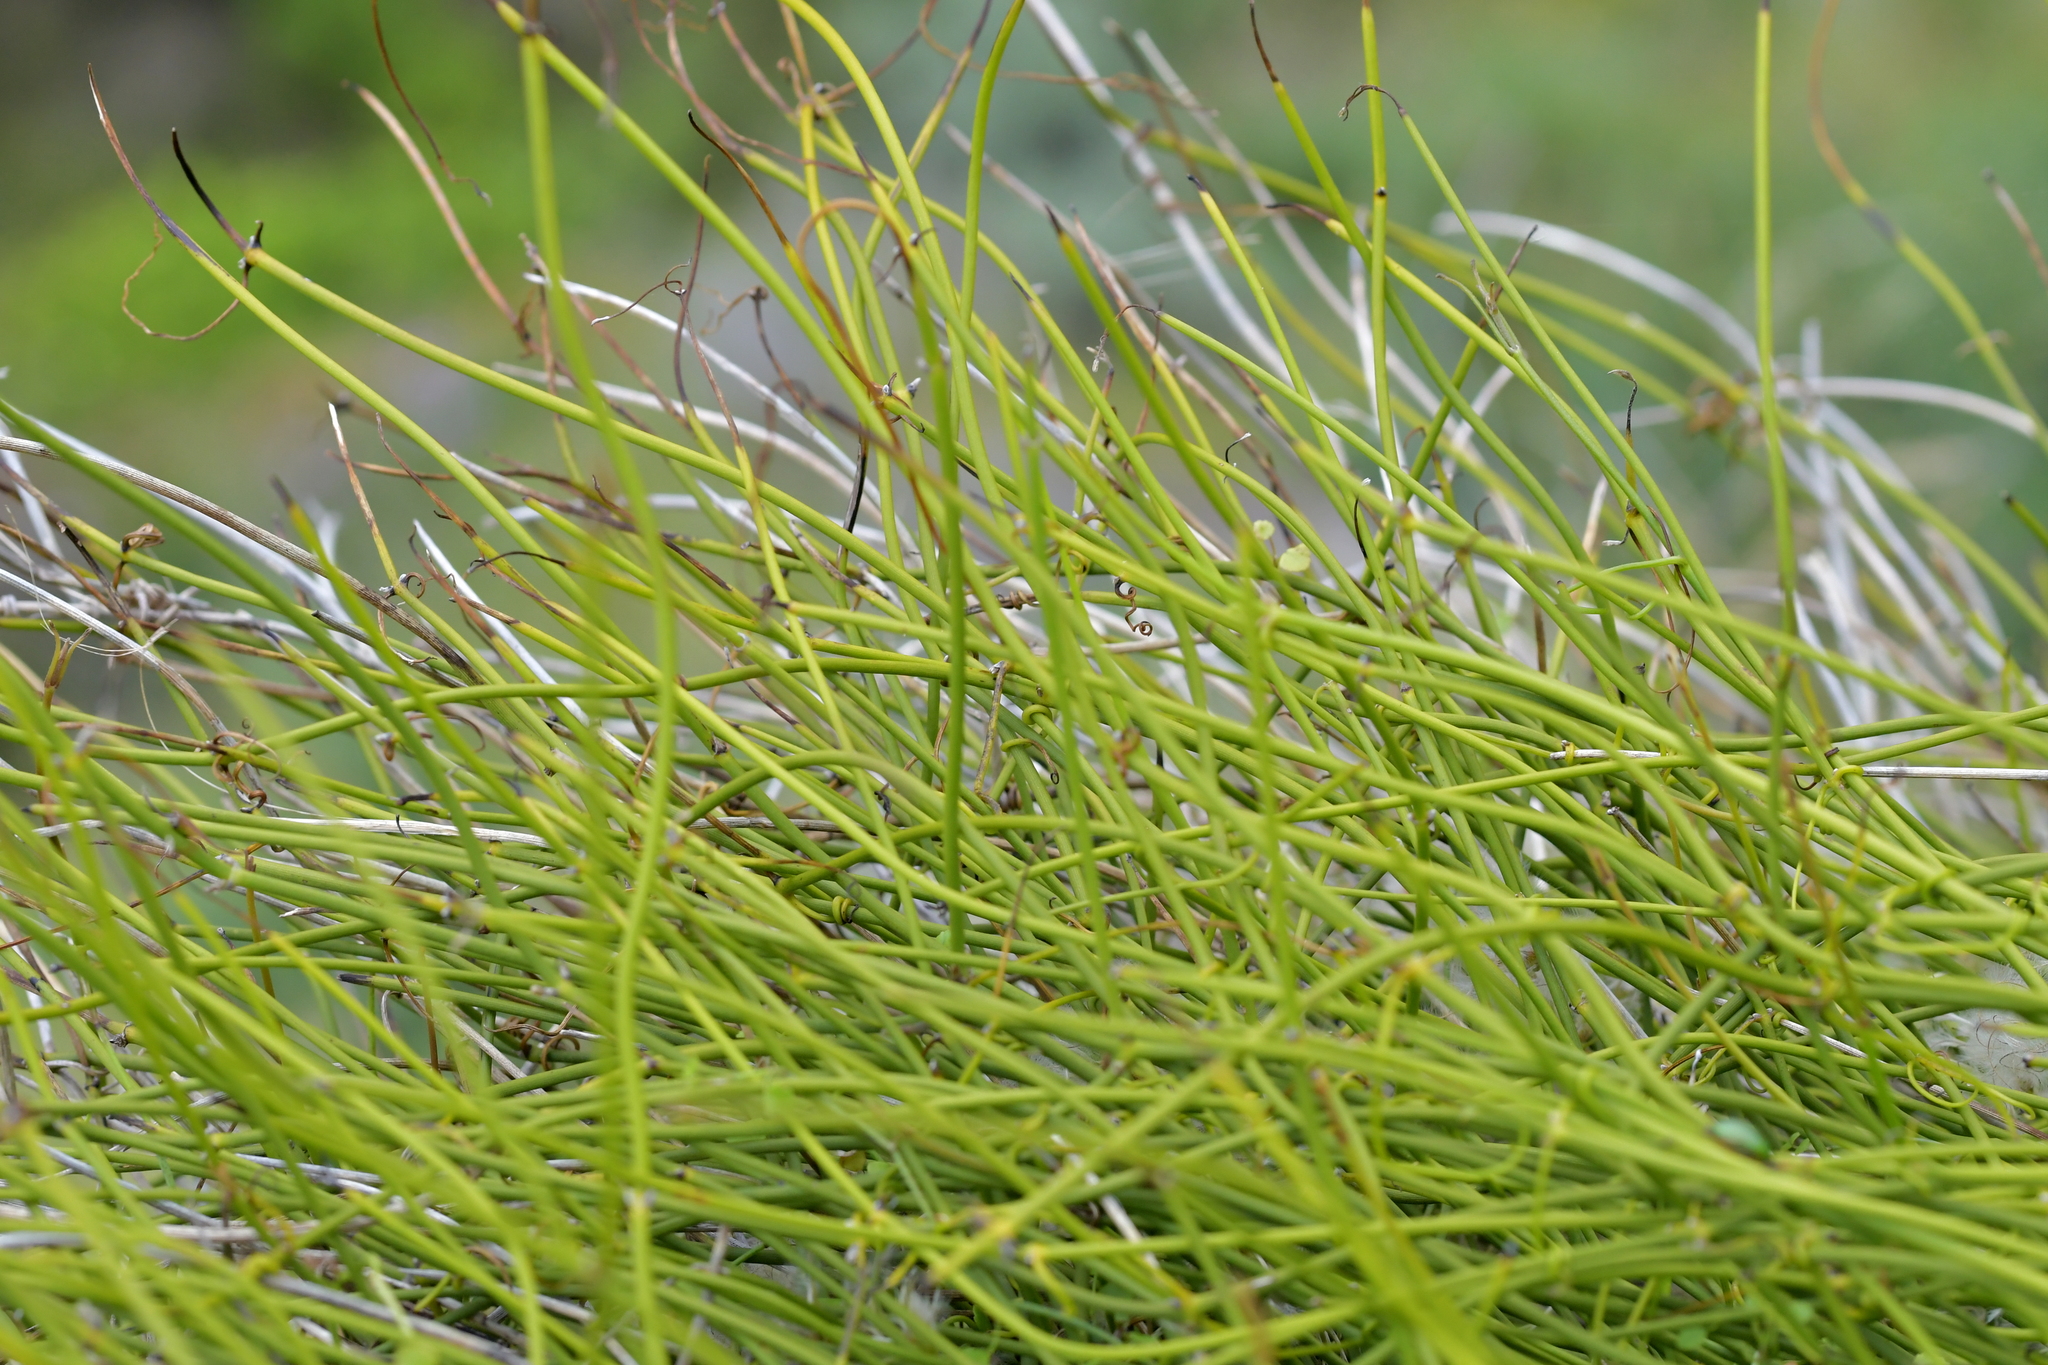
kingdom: Plantae
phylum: Tracheophyta
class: Magnoliopsida
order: Fabales
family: Fabaceae
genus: Carmichaelia
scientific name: Carmichaelia australis
